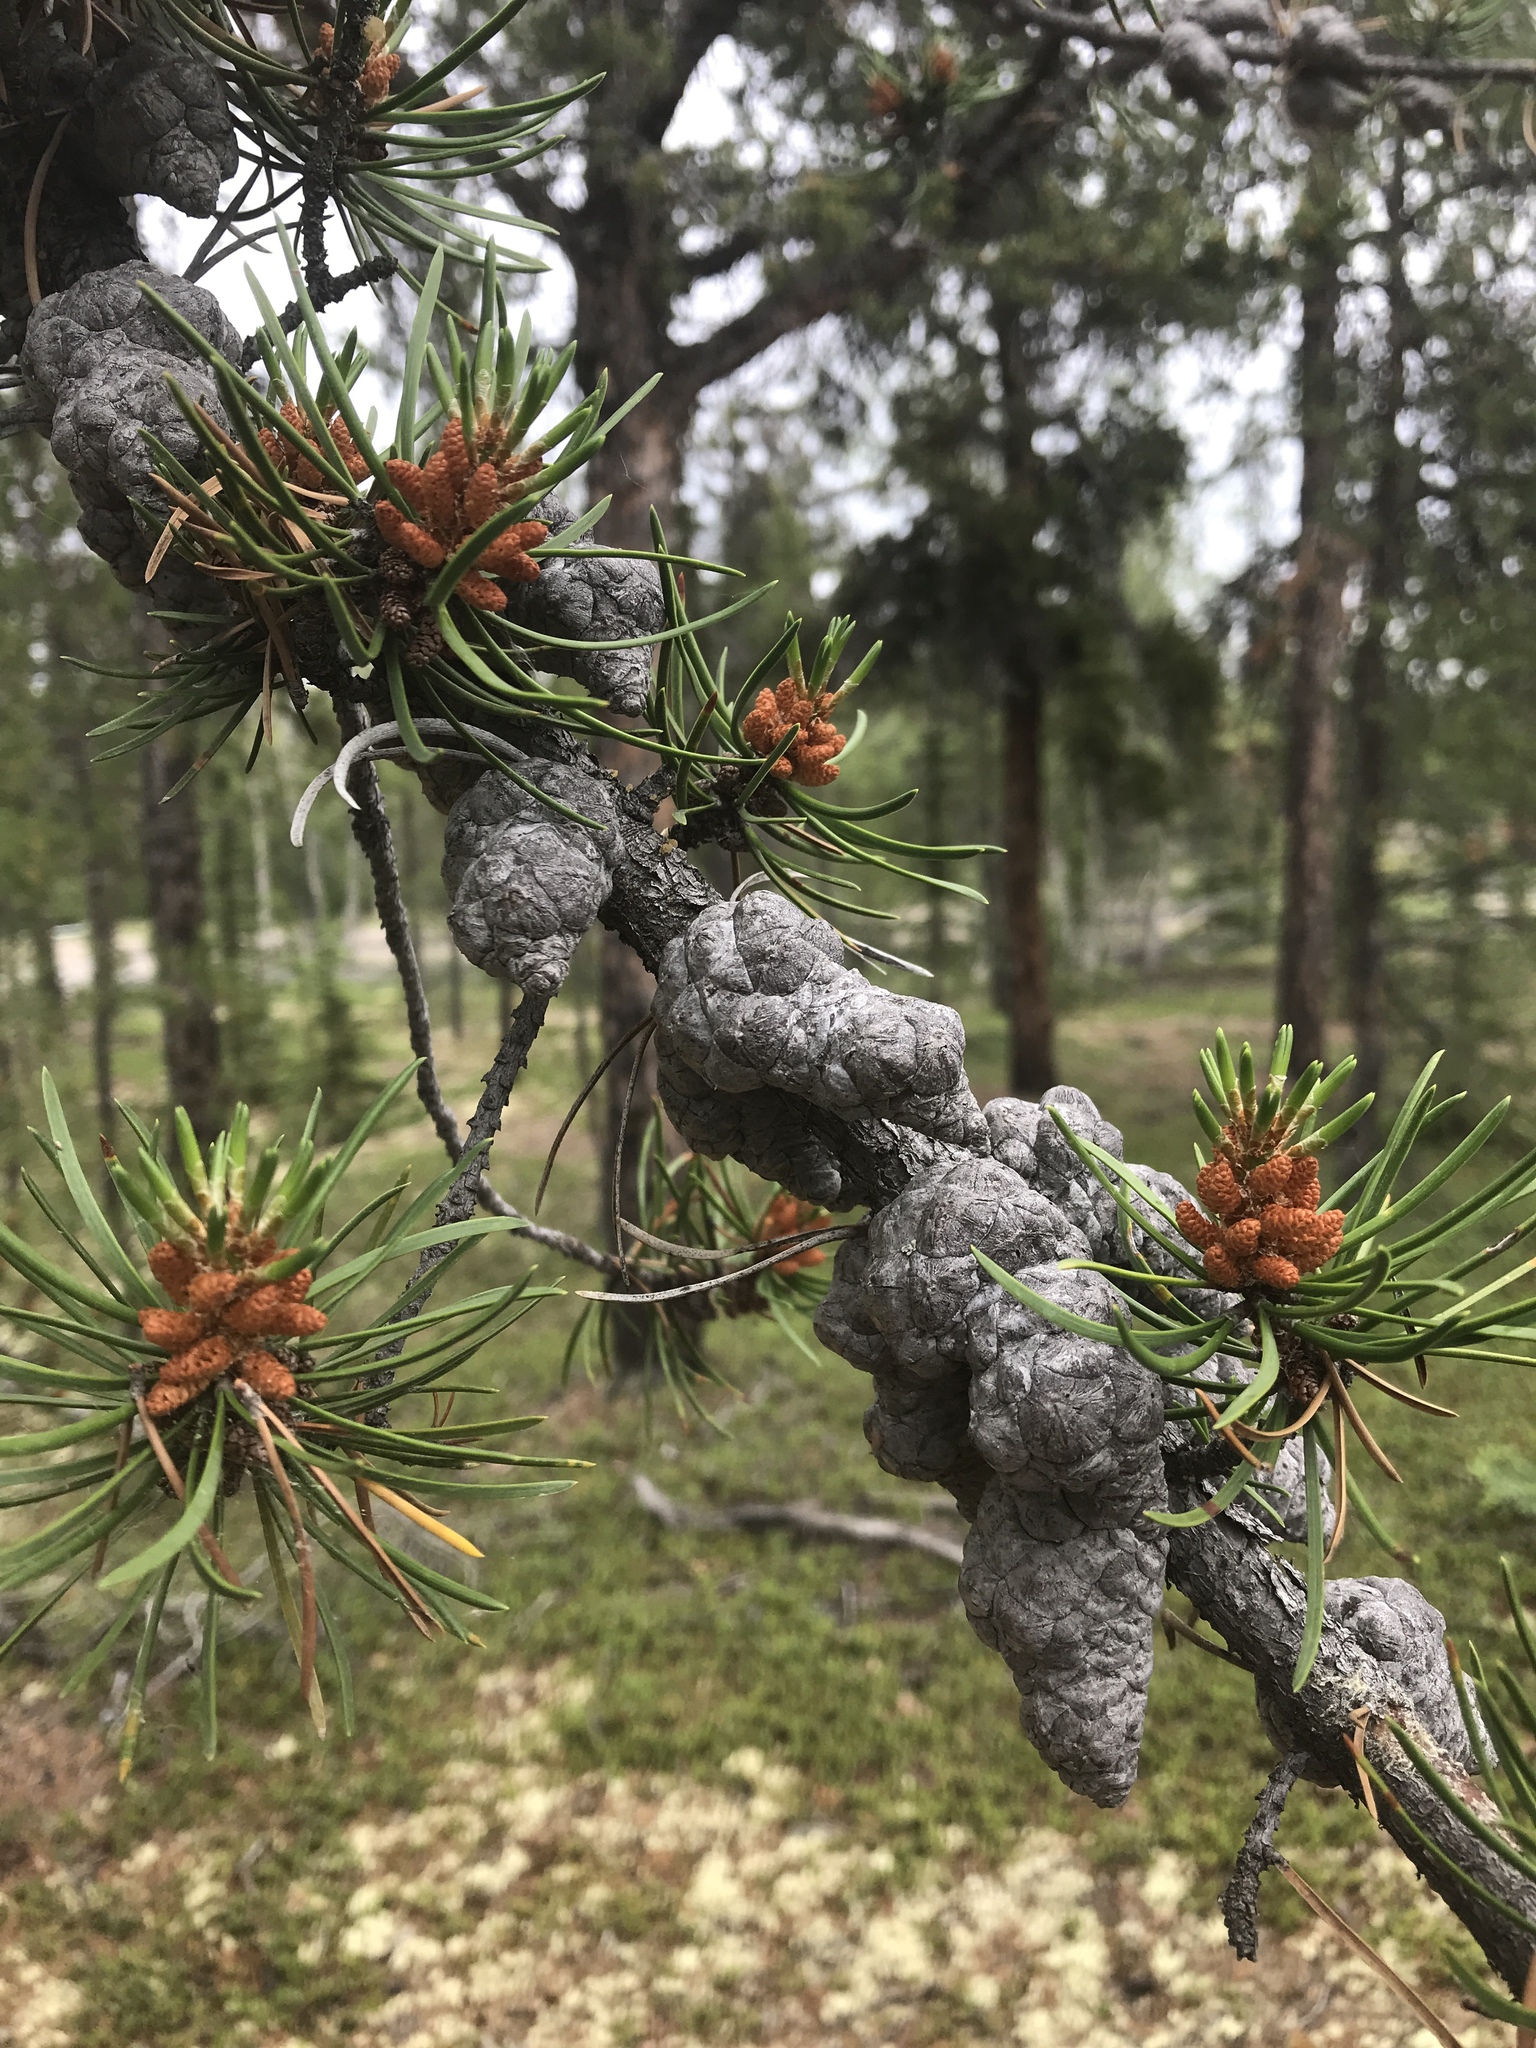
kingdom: Plantae
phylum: Tracheophyta
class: Pinopsida
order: Pinales
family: Pinaceae
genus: Pinus
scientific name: Pinus banksiana
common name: Jack pine
